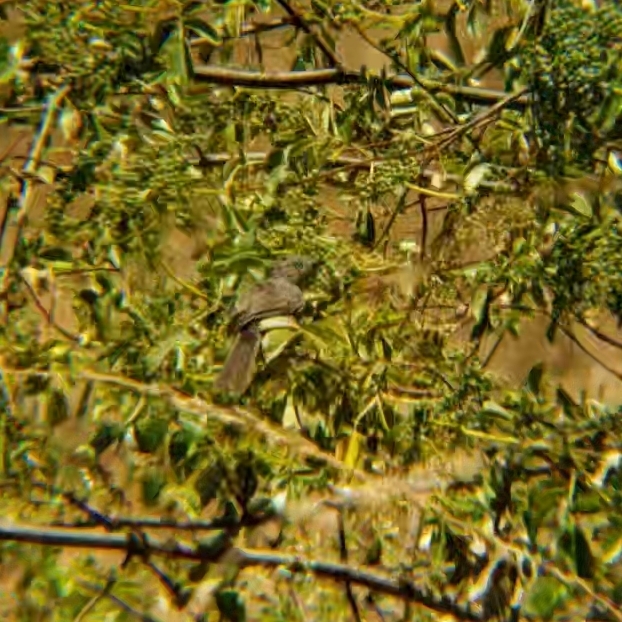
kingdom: Animalia
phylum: Chordata
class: Aves
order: Passeriformes
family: Sylviidae
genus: Chamaea
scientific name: Chamaea fasciata
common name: Wrentit
